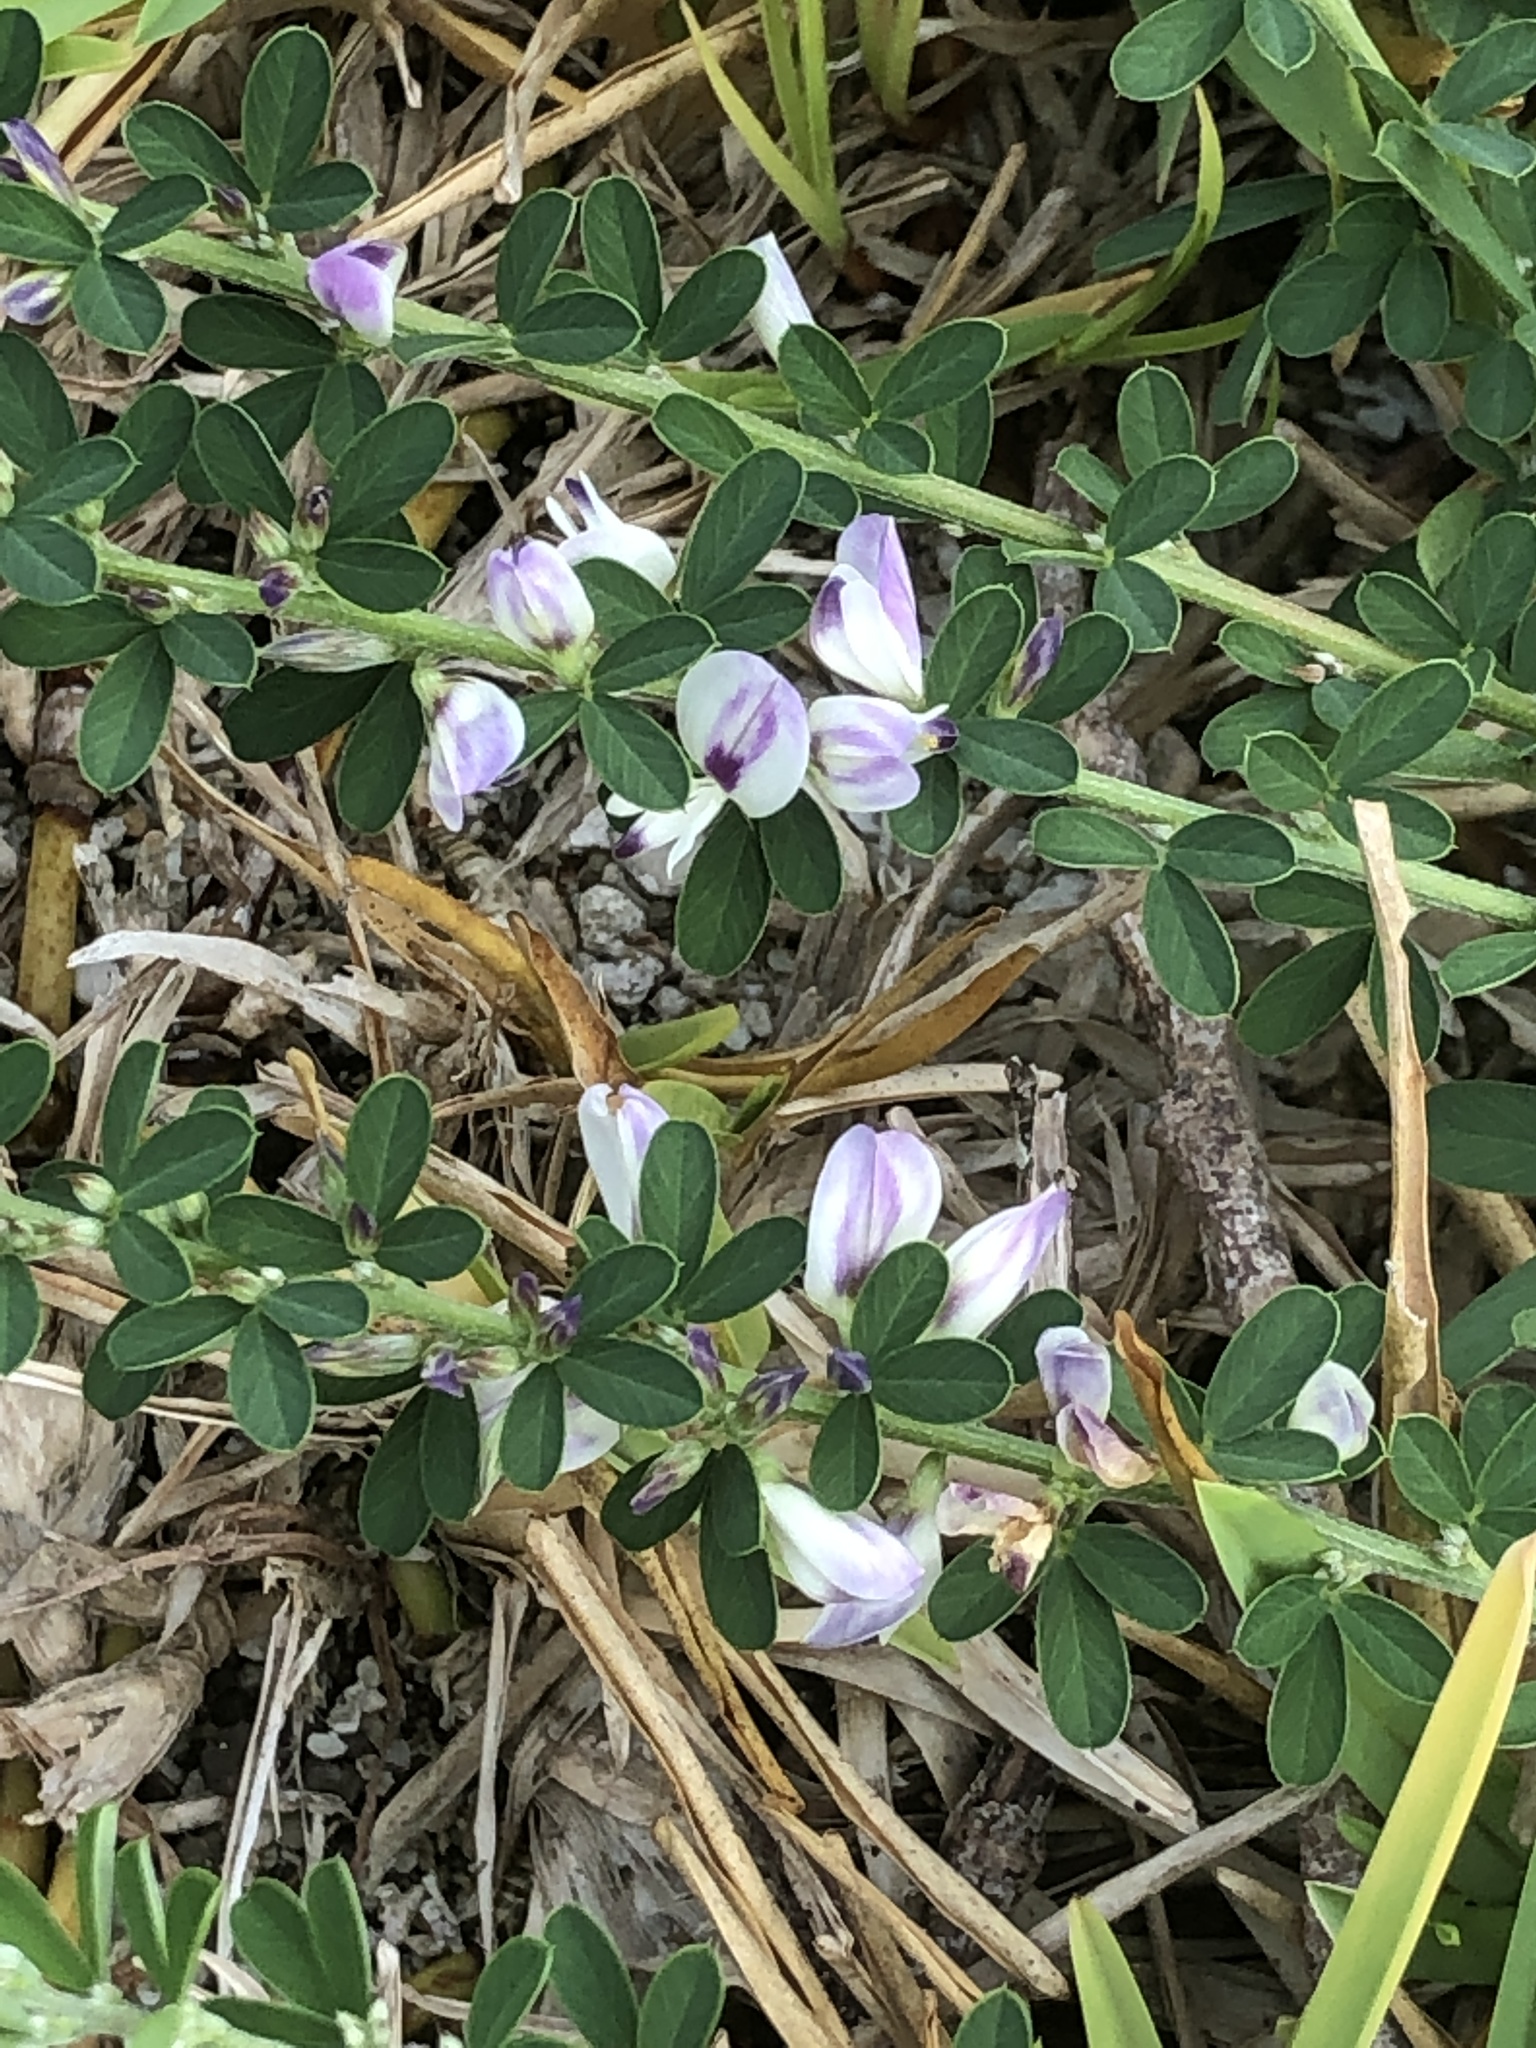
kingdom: Plantae
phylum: Tracheophyta
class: Magnoliopsida
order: Fabales
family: Fabaceae
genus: Lespedeza
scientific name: Lespedeza cuneata
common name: Chinese bush-clover
